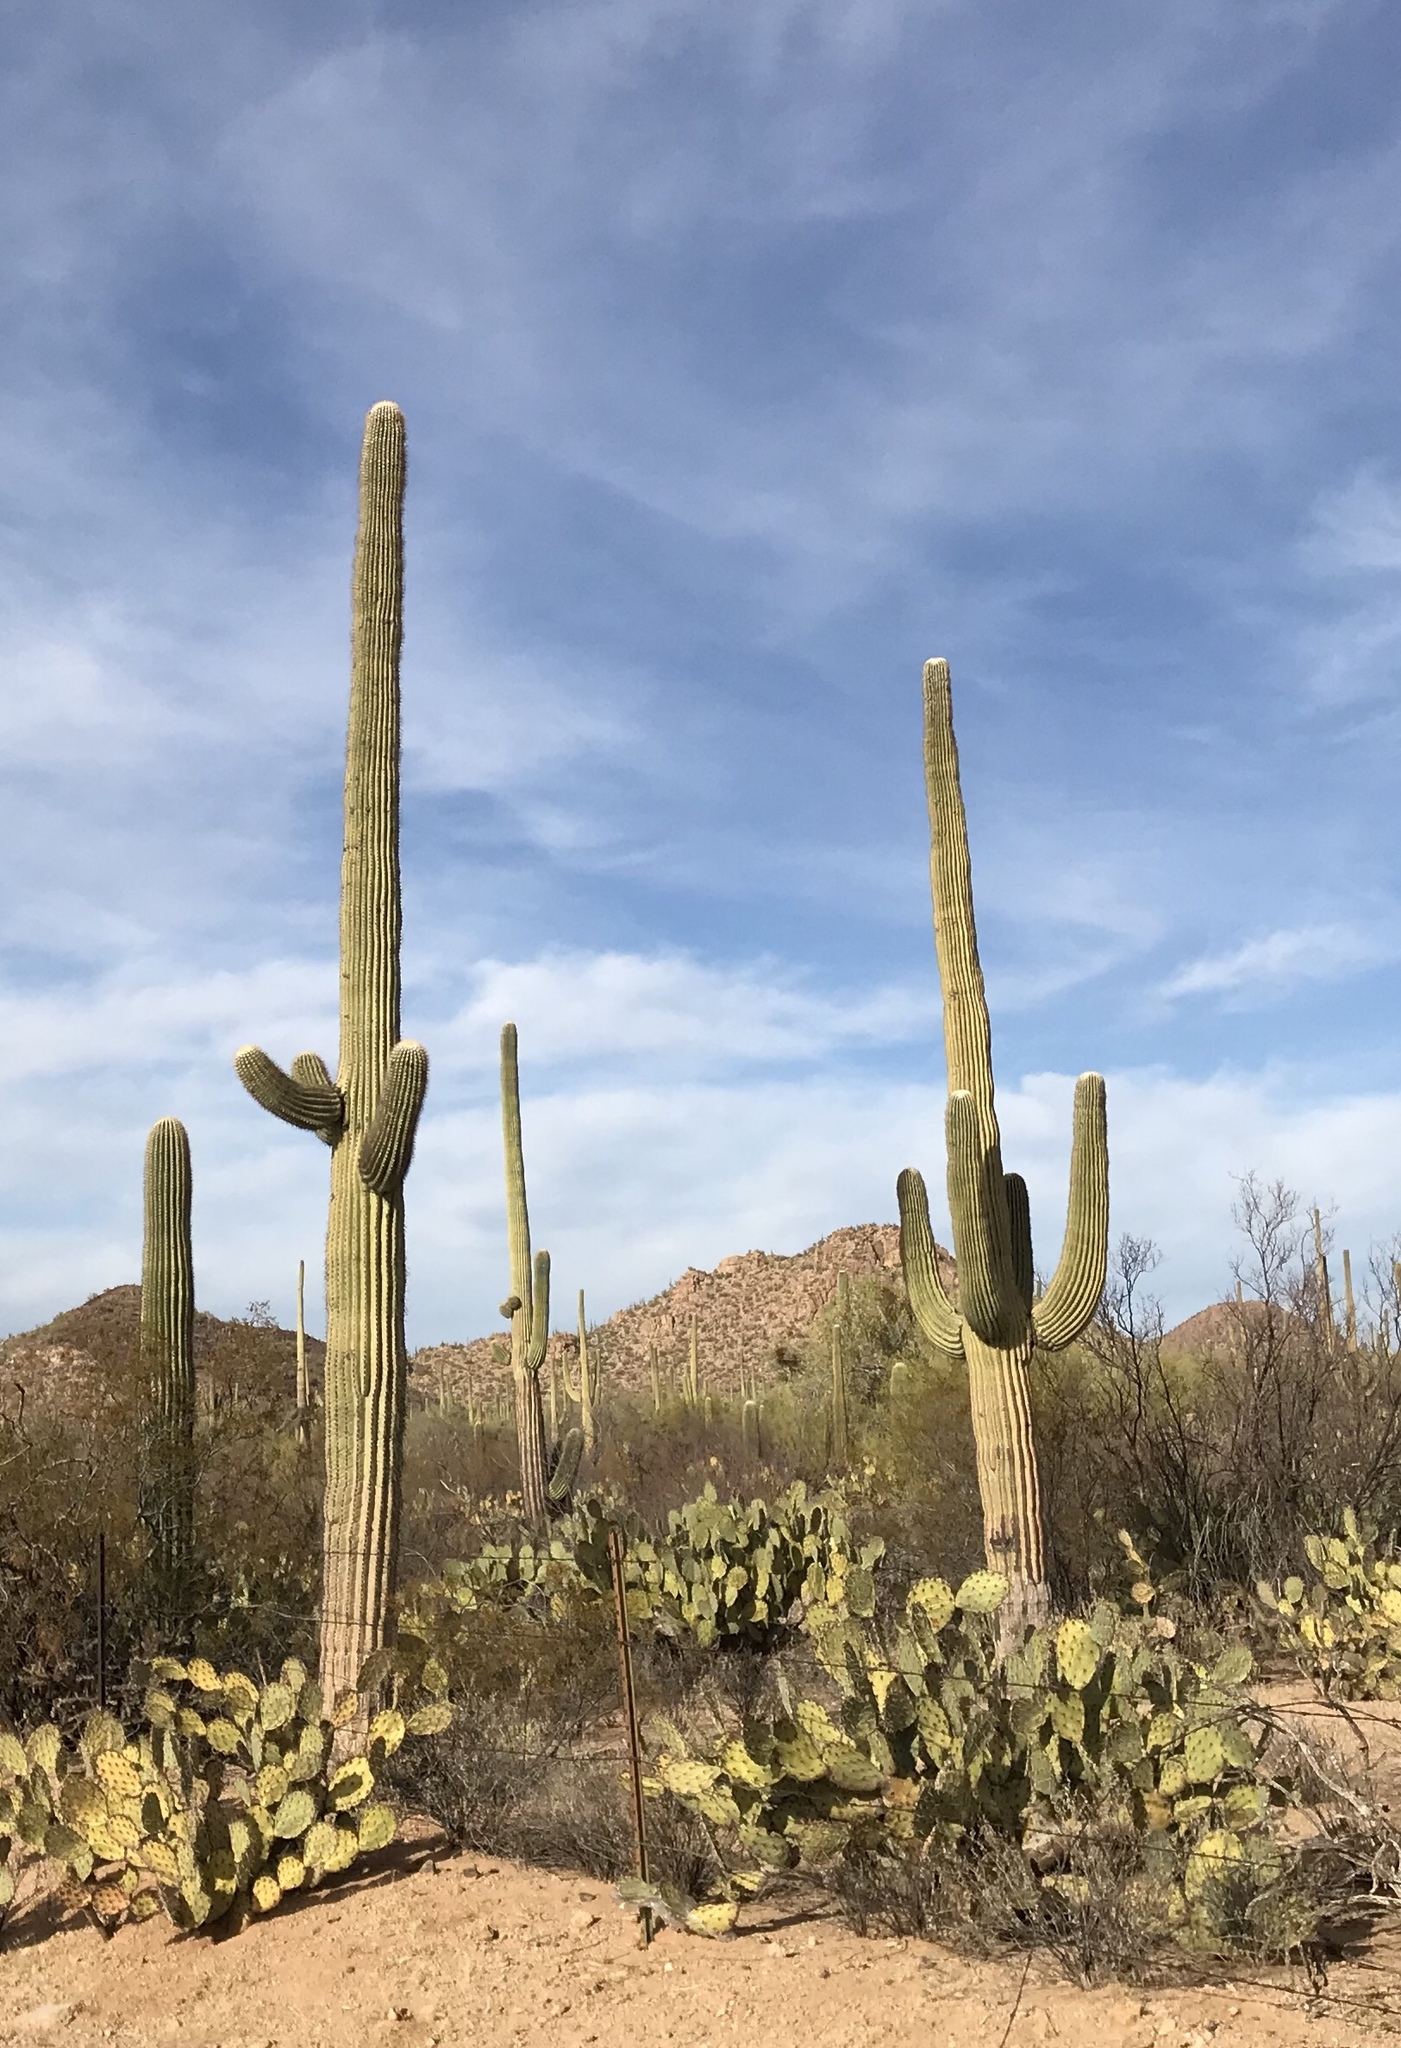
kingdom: Plantae
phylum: Tracheophyta
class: Magnoliopsida
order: Caryophyllales
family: Cactaceae
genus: Carnegiea
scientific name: Carnegiea gigantea
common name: Saguaro
